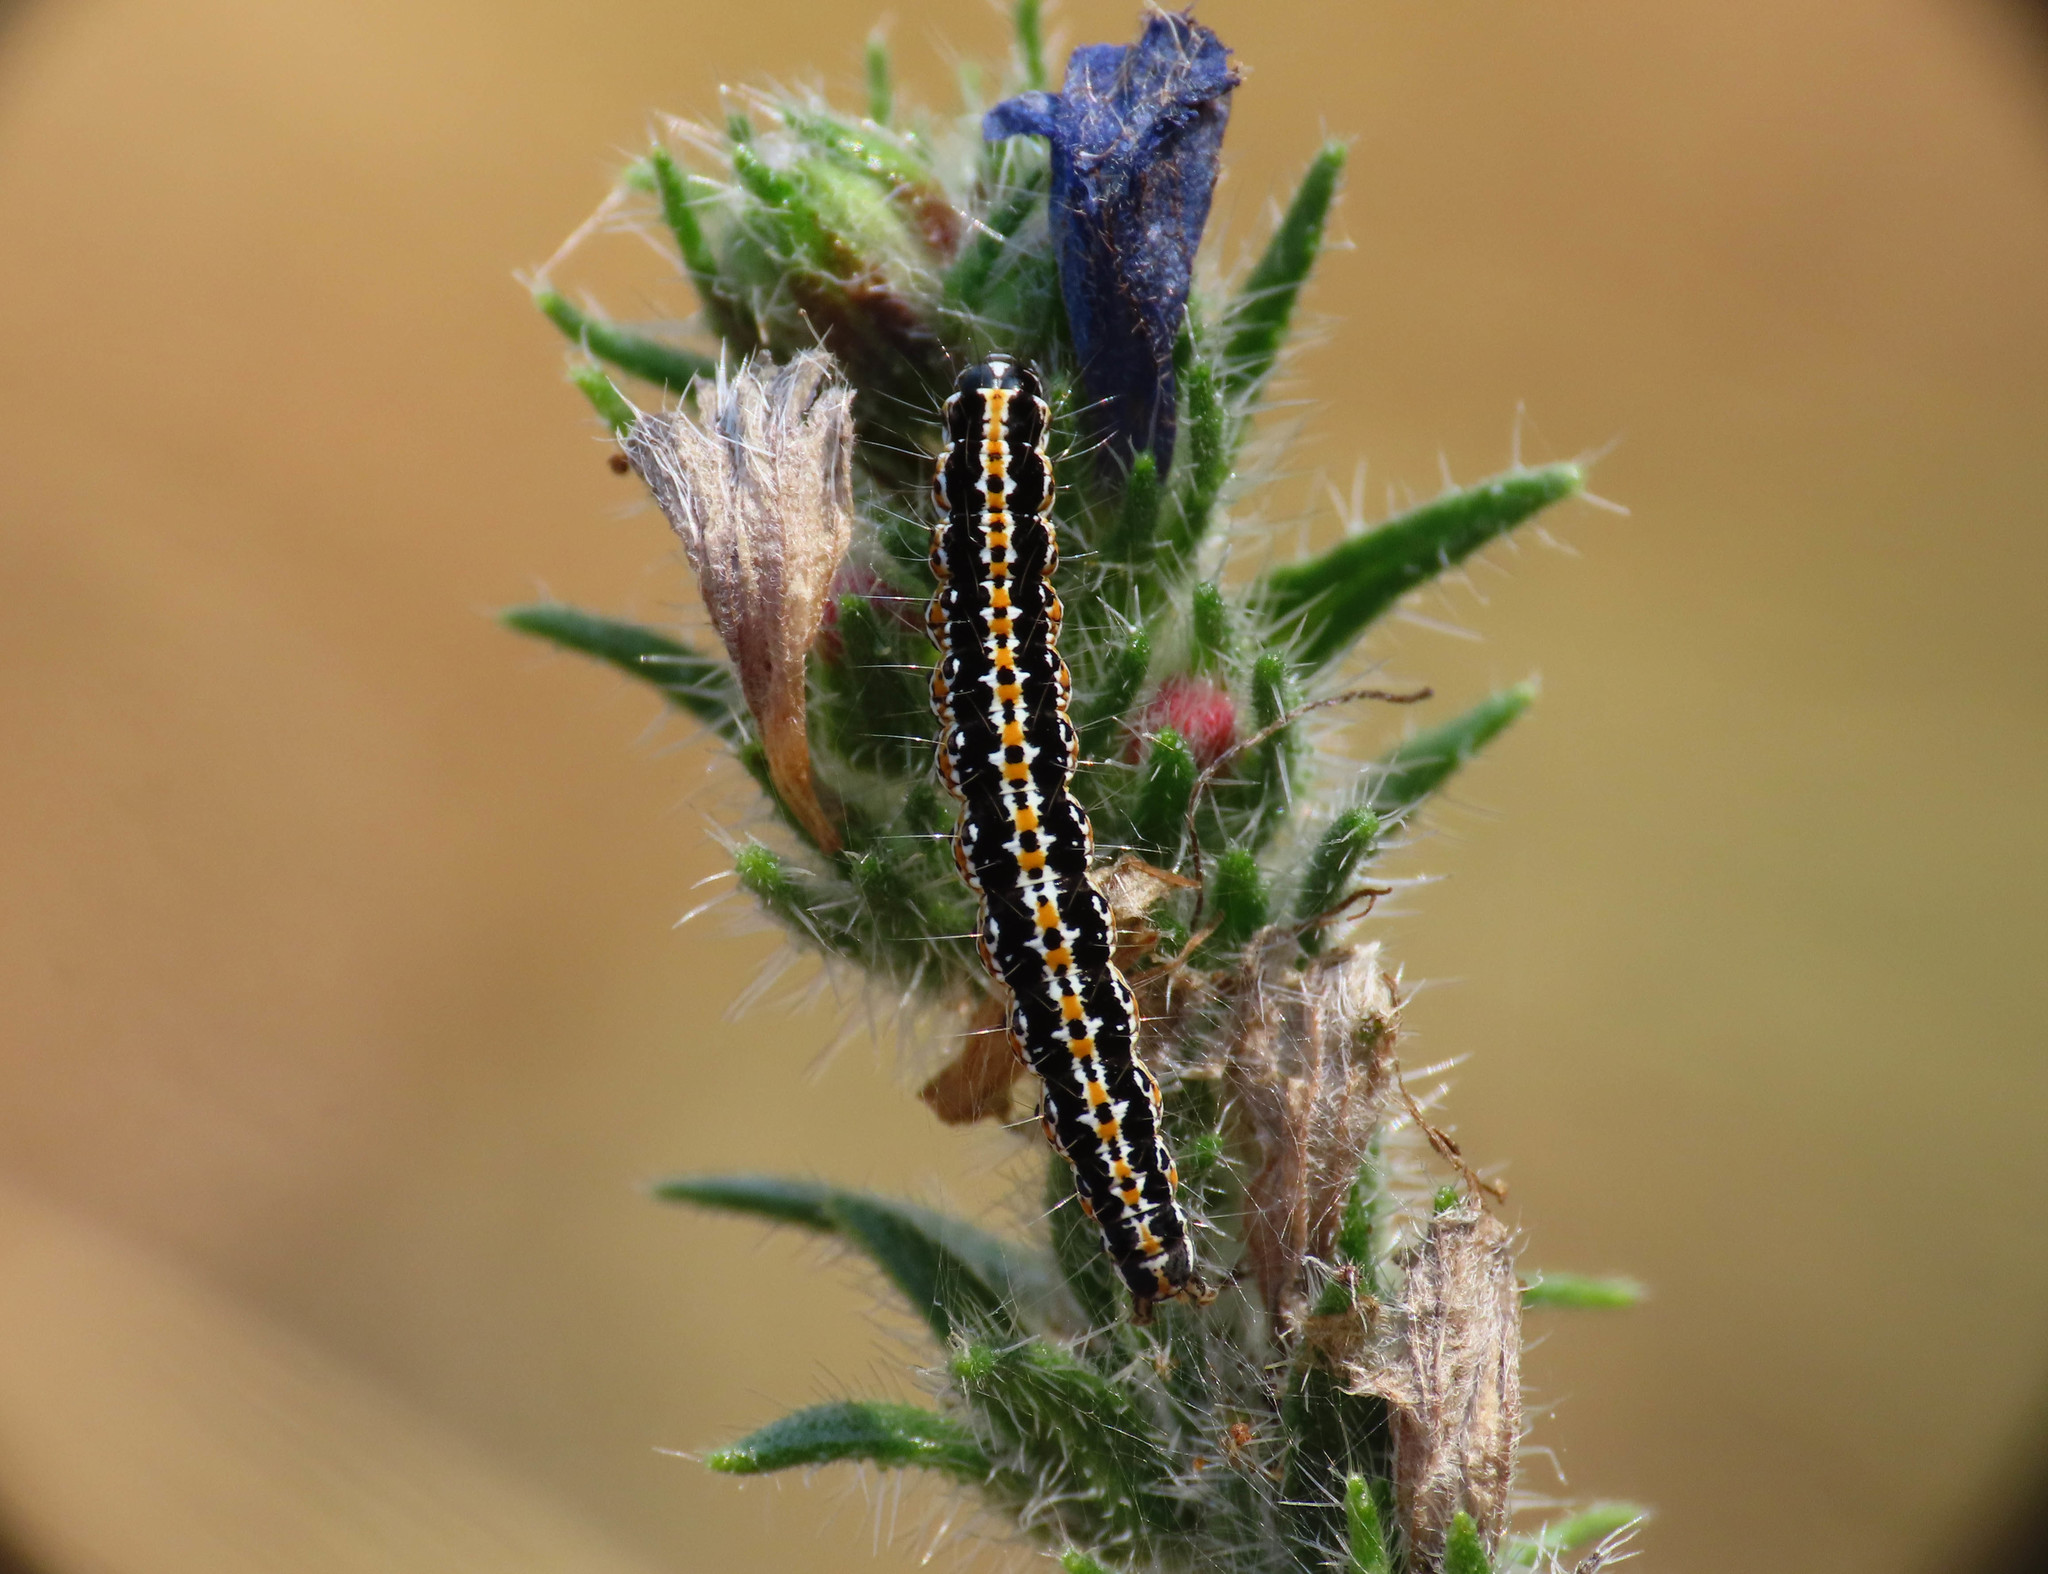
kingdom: Animalia
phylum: Arthropoda
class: Insecta
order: Lepidoptera
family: Ethmiidae
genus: Ethmia
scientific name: Ethmia bipunctella
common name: Bordered ermel
